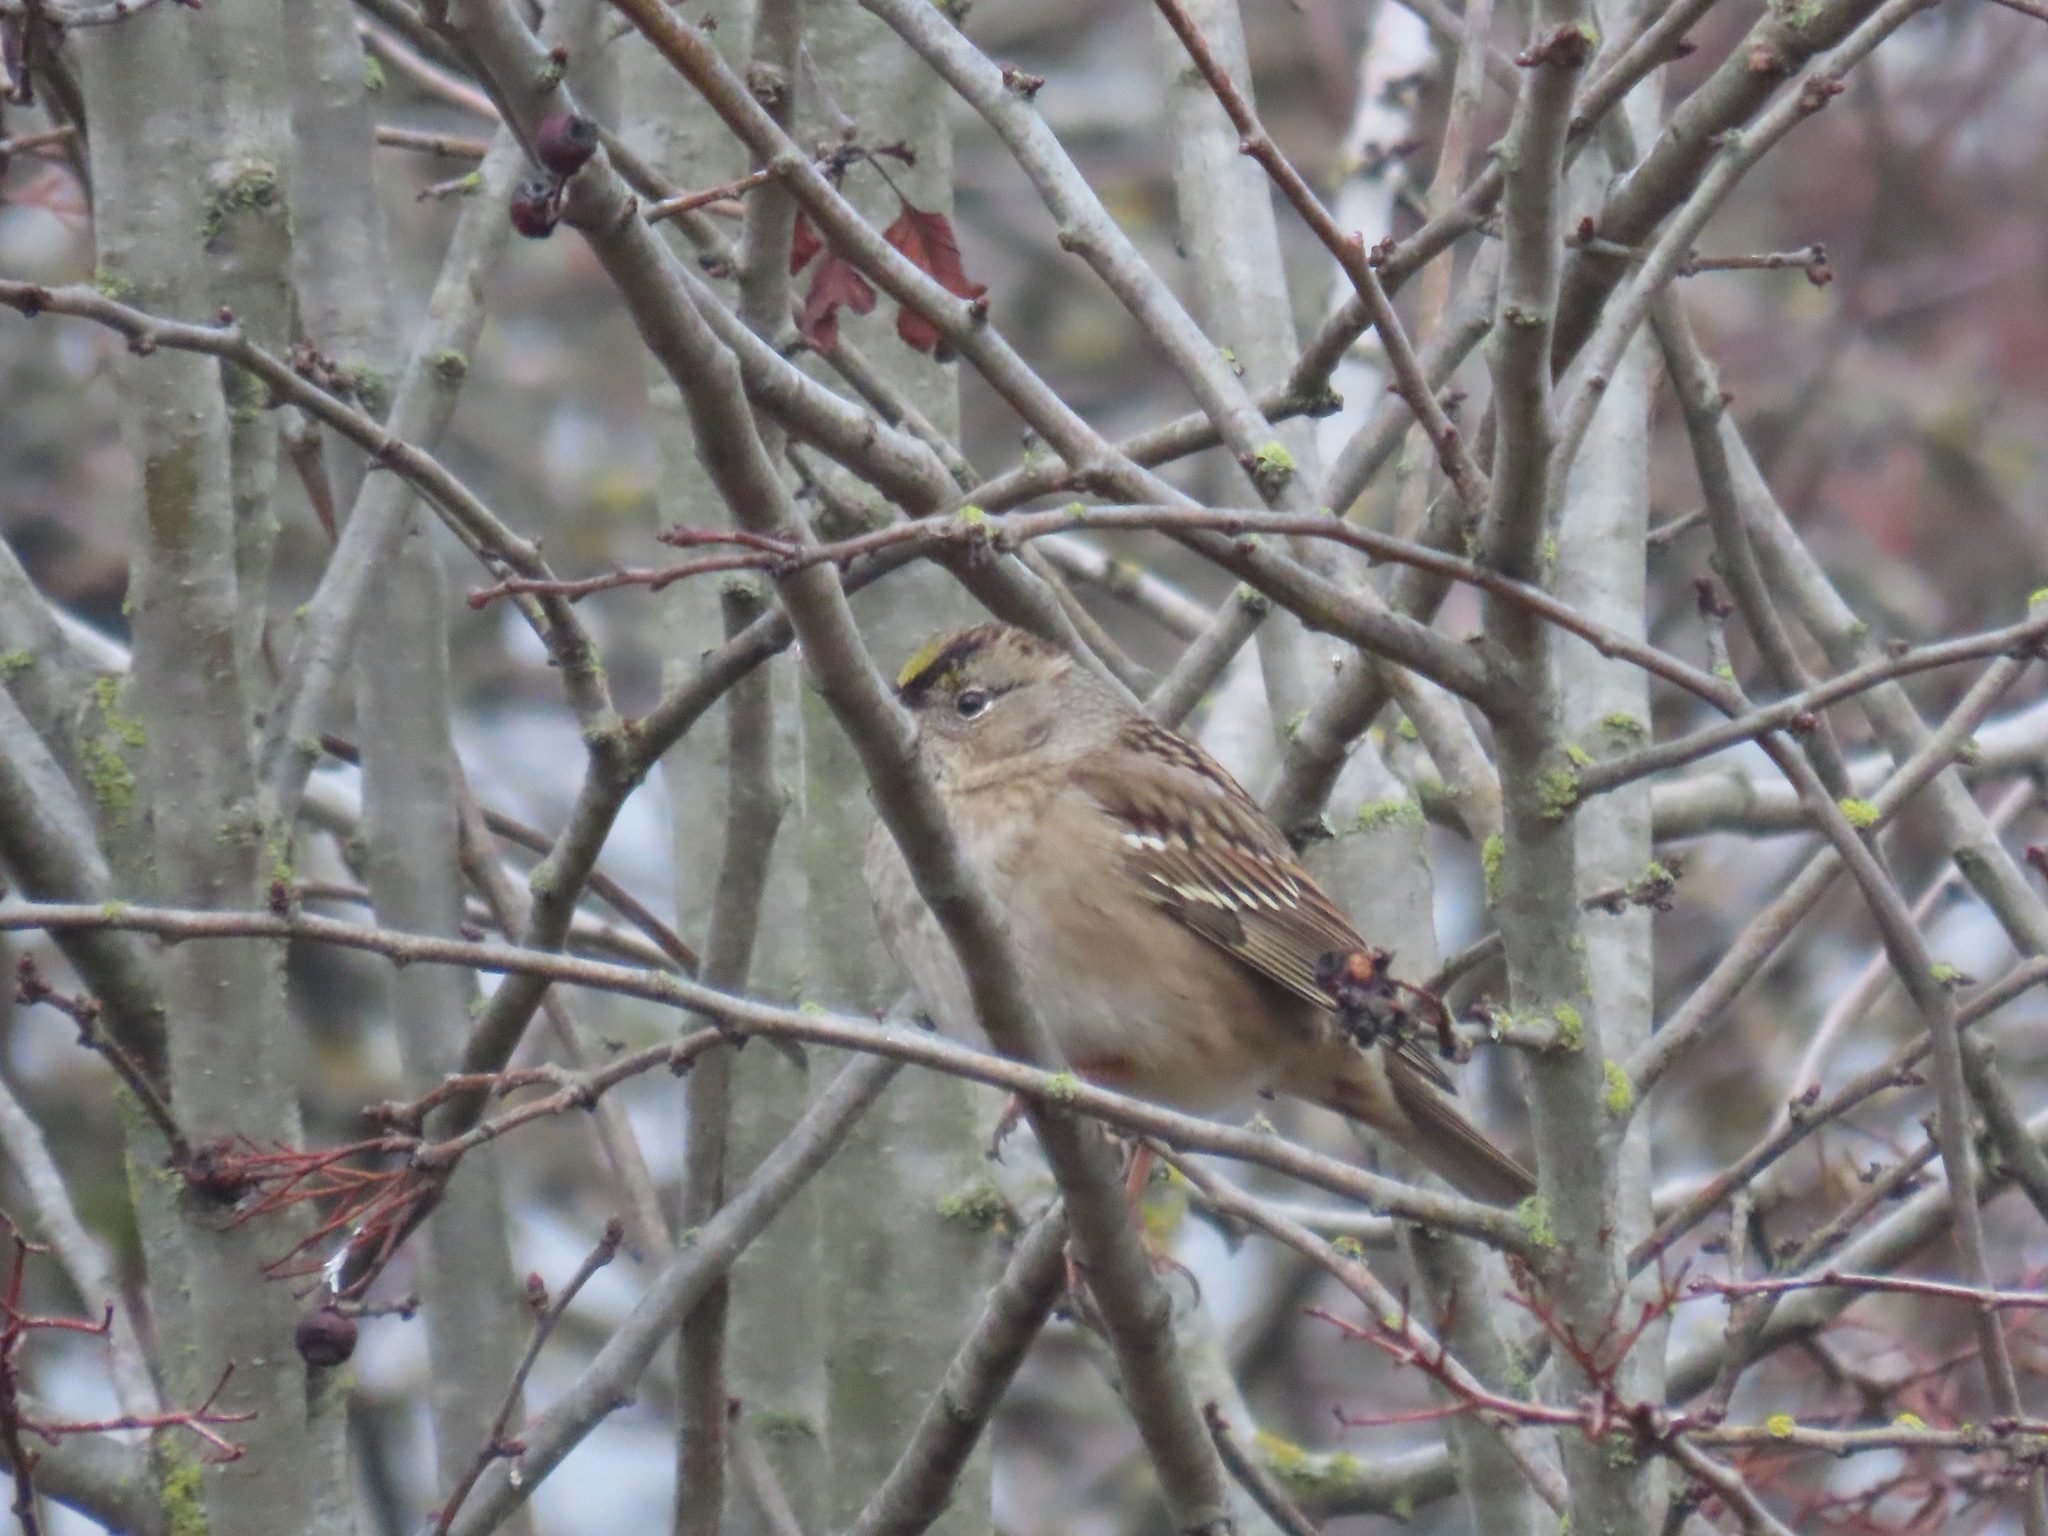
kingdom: Animalia
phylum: Chordata
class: Aves
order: Passeriformes
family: Passerellidae
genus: Zonotrichia
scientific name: Zonotrichia atricapilla
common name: Golden-crowned sparrow
